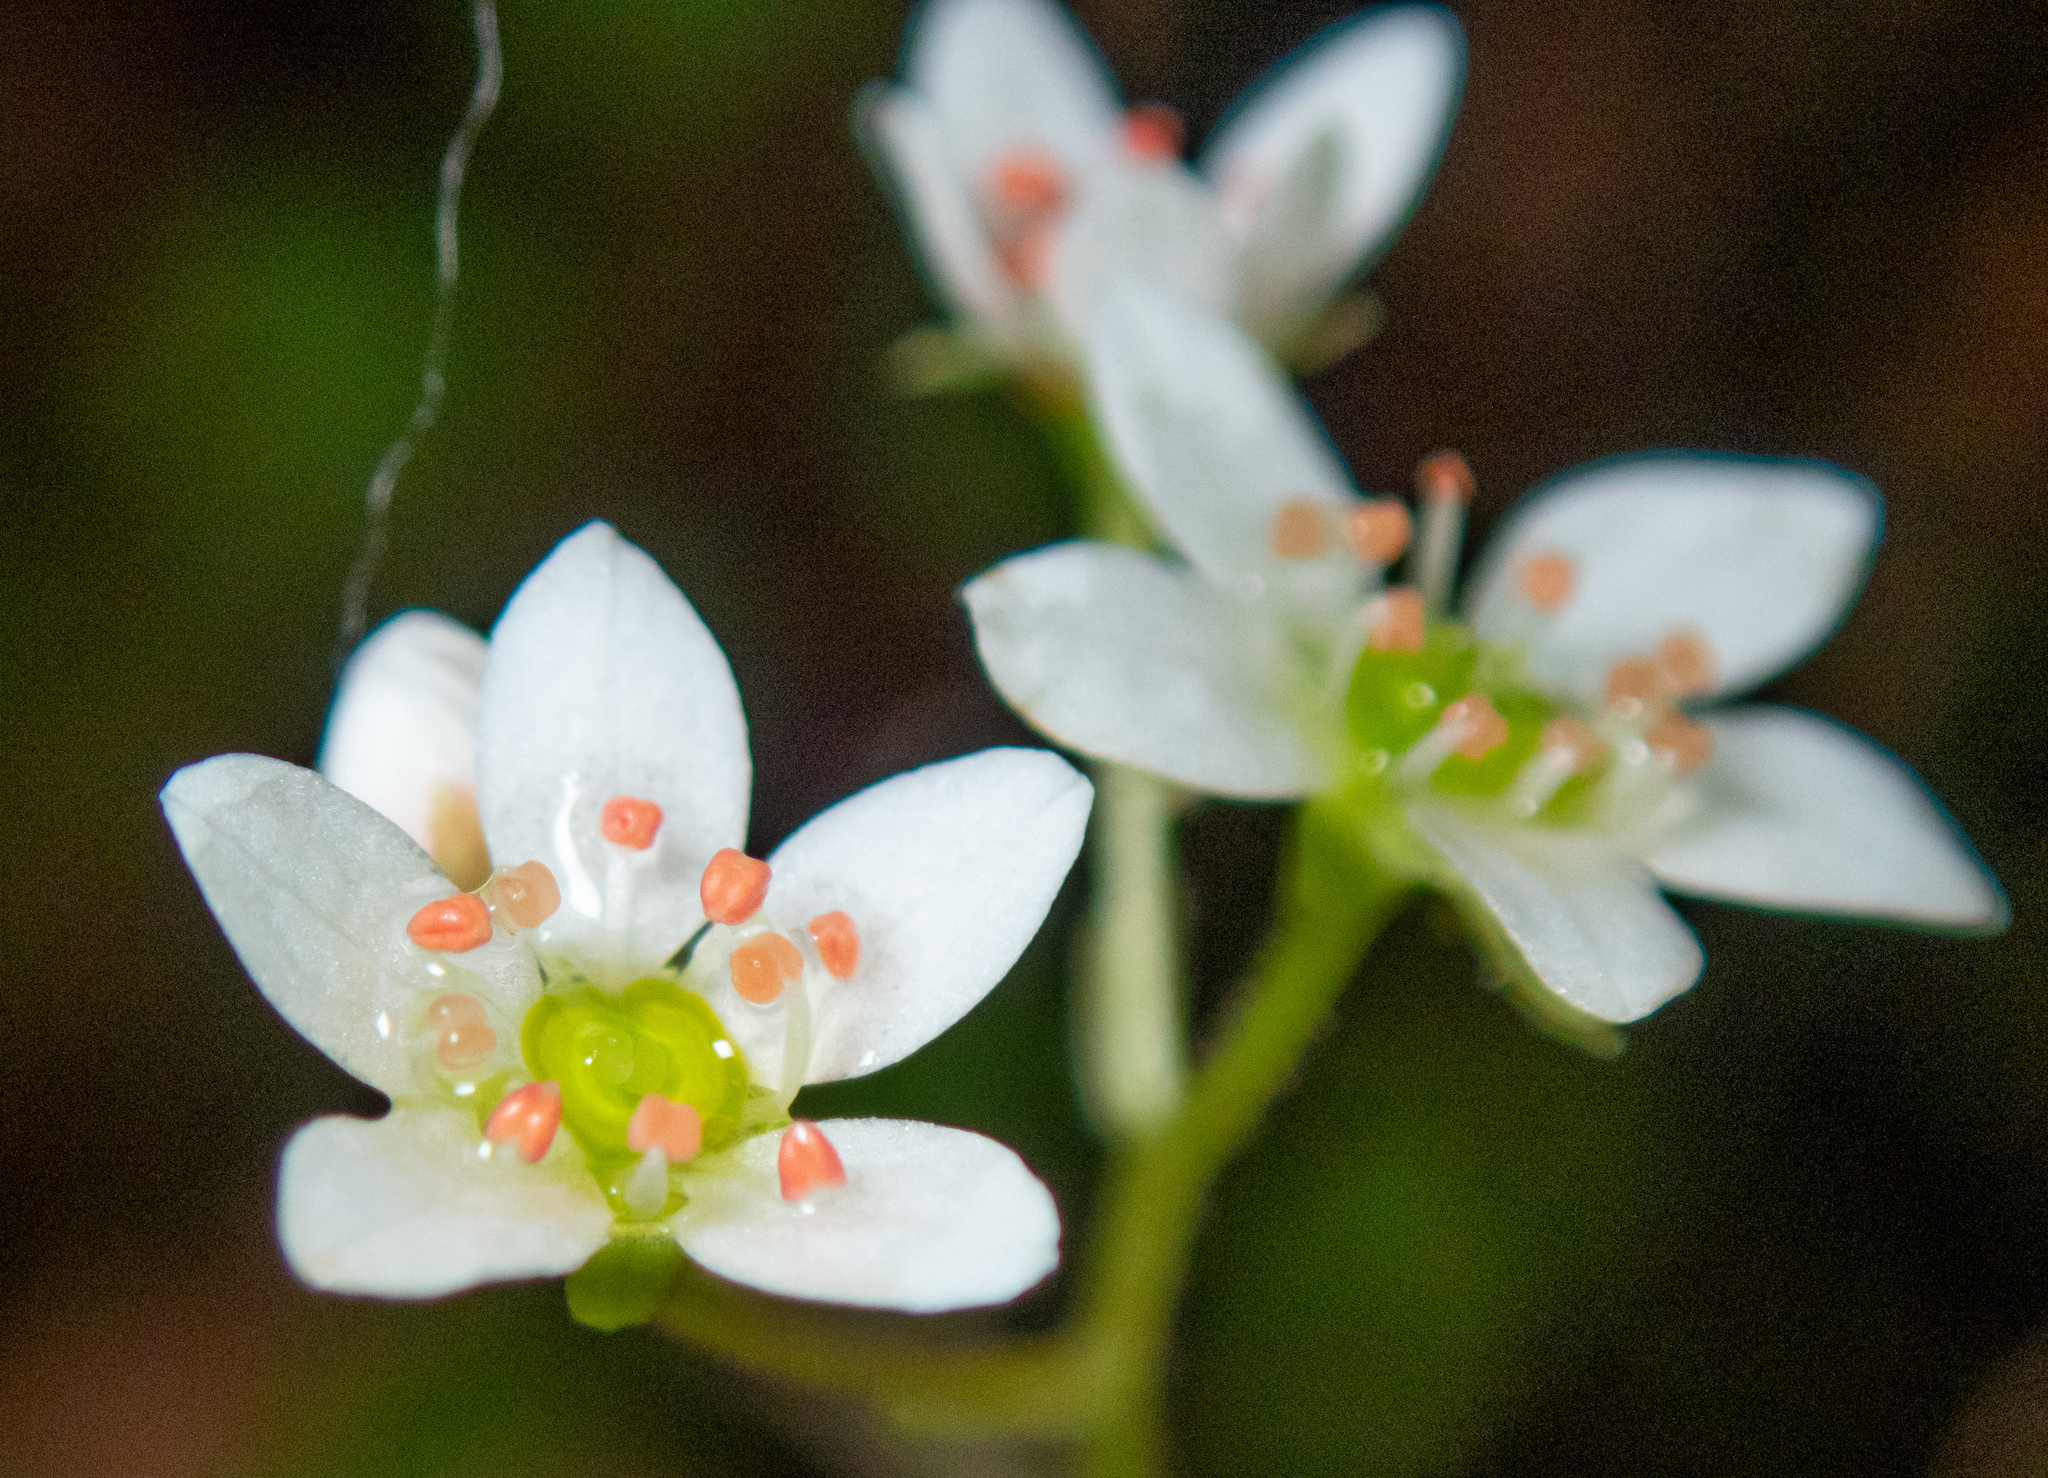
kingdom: Plantae
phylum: Tracheophyta
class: Magnoliopsida
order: Saxifragales
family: Saxifragaceae
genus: Micranthes
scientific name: Micranthes californica
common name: California saxifrage
